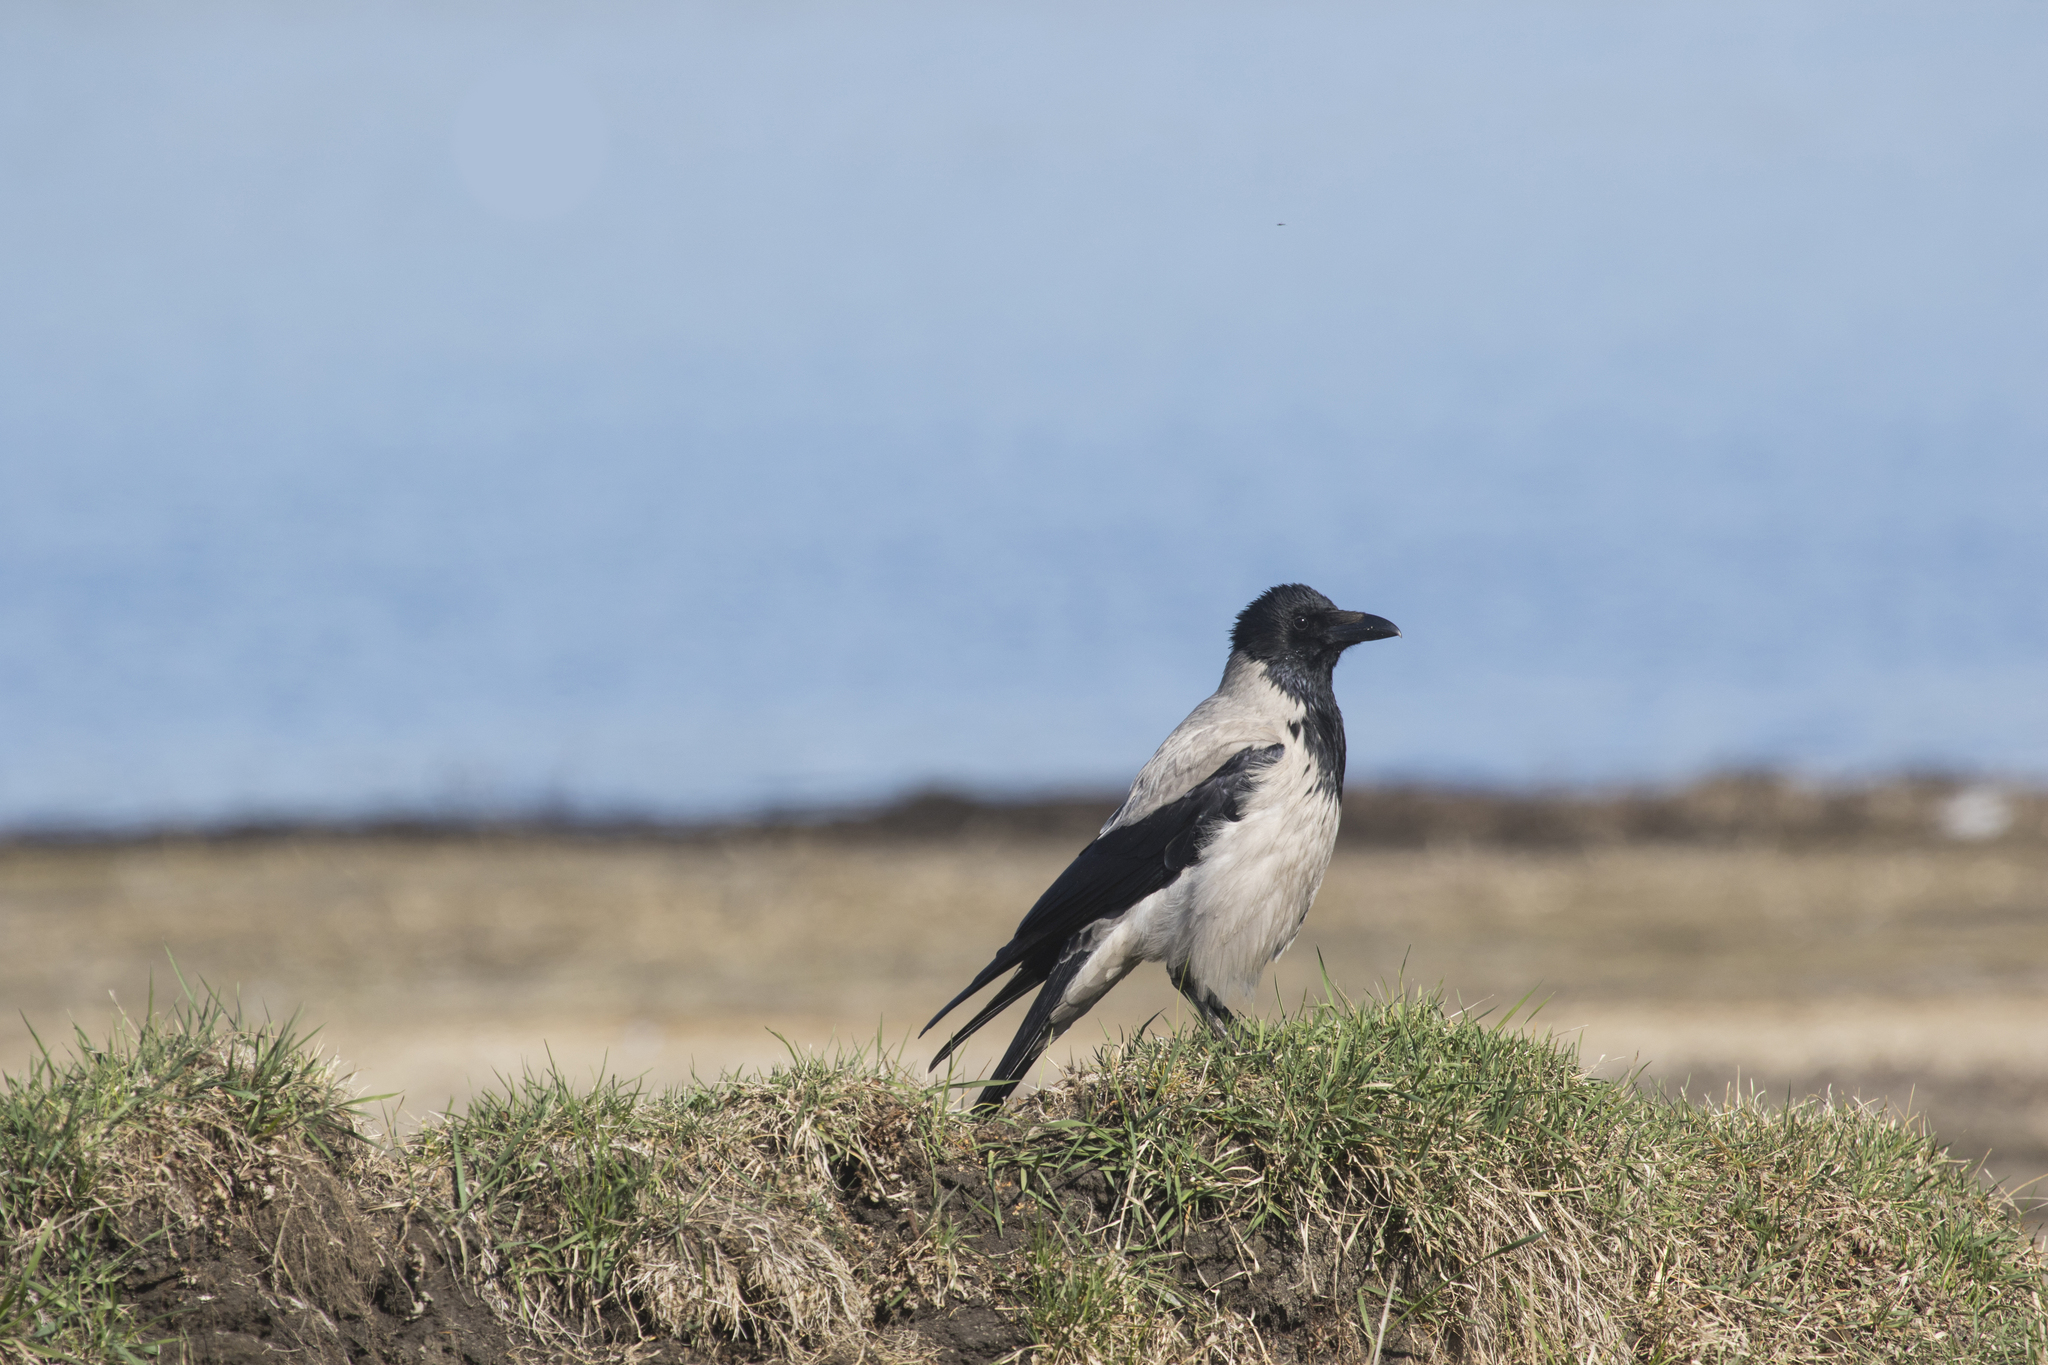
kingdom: Animalia
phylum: Chordata
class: Aves
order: Passeriformes
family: Corvidae
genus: Corvus
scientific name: Corvus cornix
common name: Hooded crow
